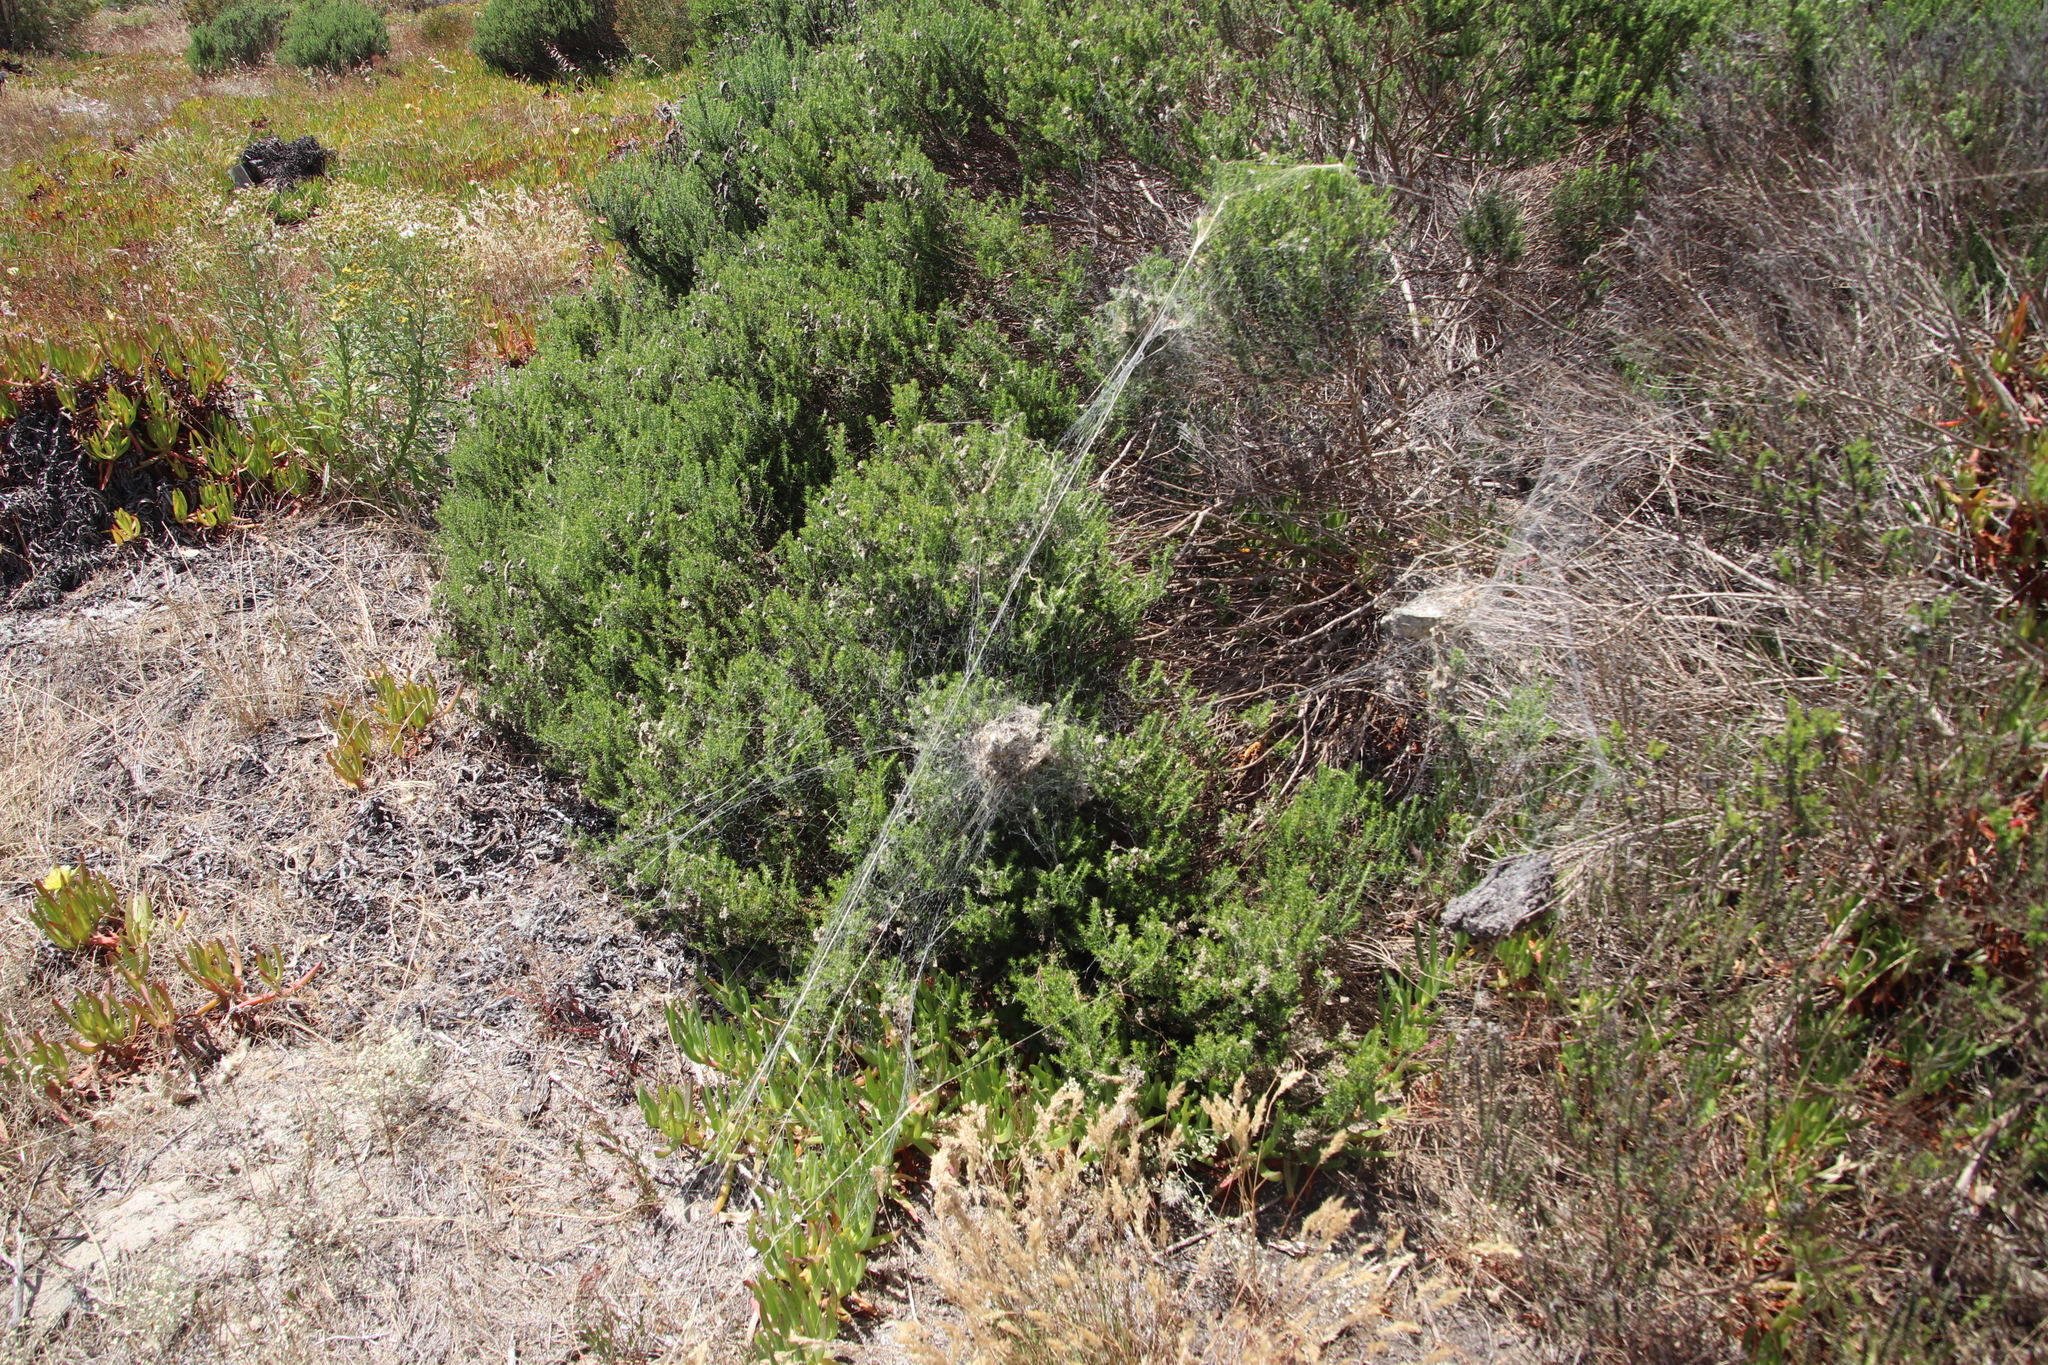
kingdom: Animalia
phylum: Arthropoda
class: Arachnida
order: Araneae
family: Eresidae
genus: Stegodyphus
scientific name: Stegodyphus dumicola
